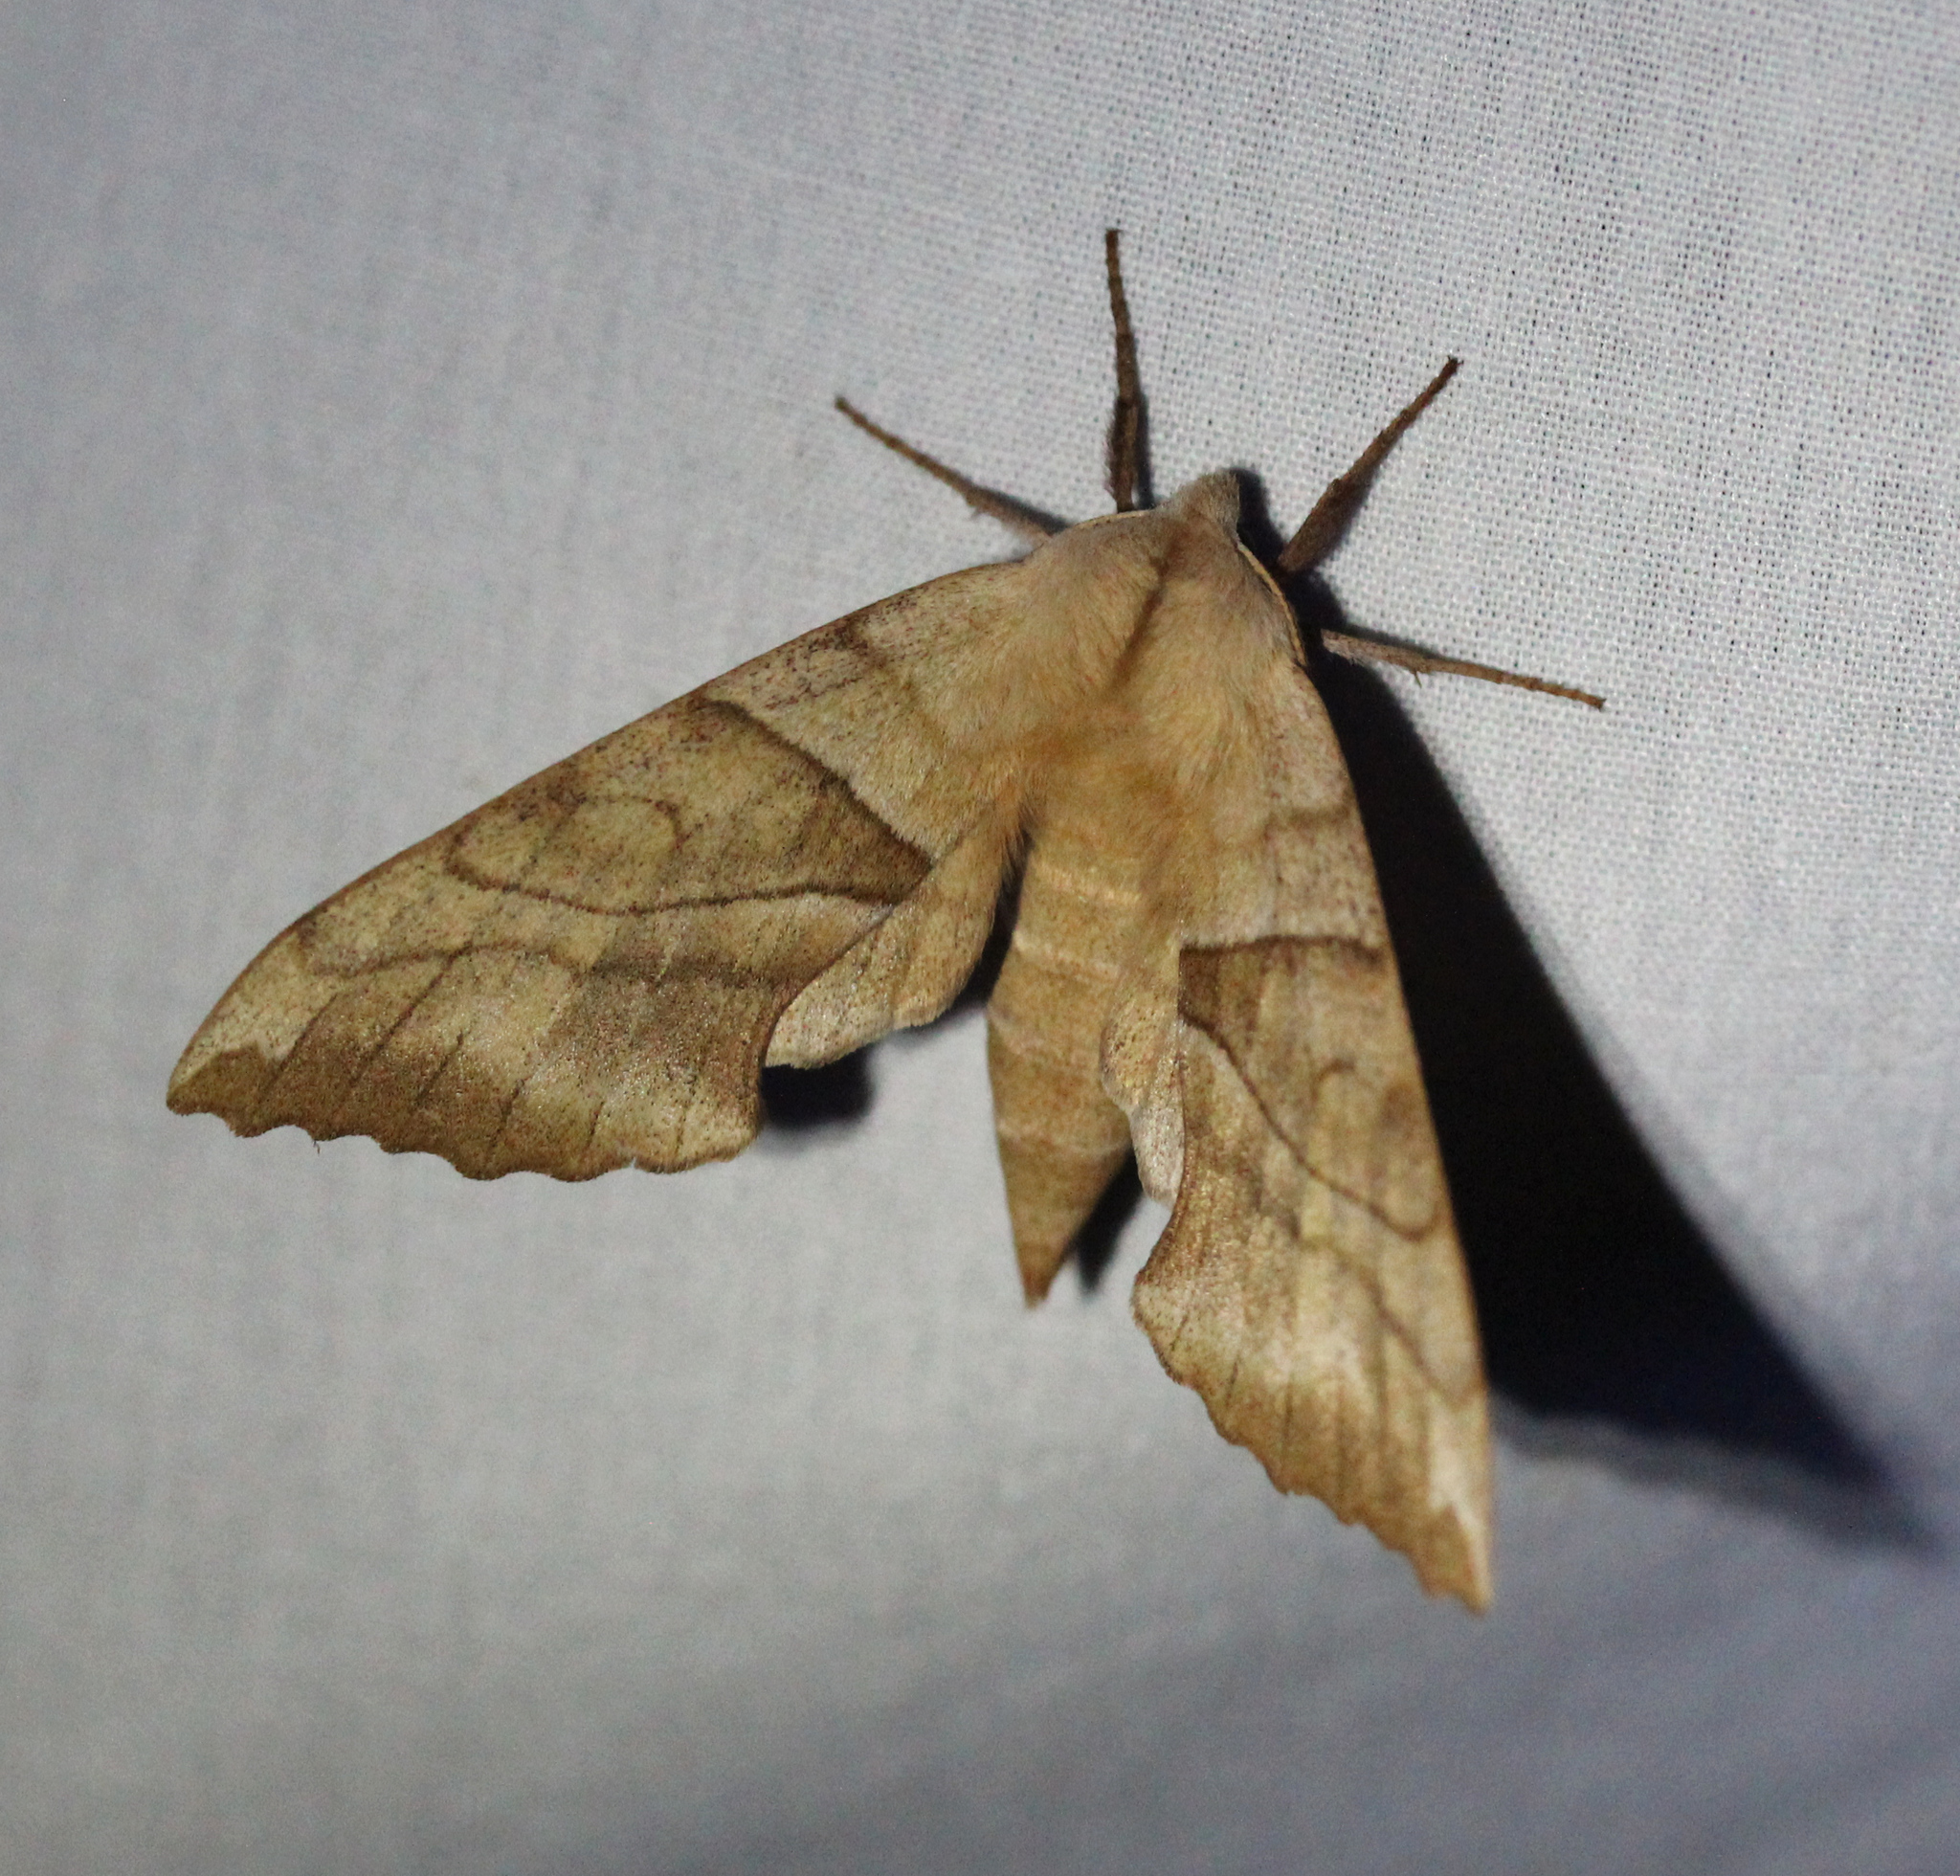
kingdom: Animalia
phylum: Arthropoda
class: Insecta
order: Lepidoptera
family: Sphingidae
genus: Amorpha
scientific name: Amorpha juglandis
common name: Walnut sphinx
